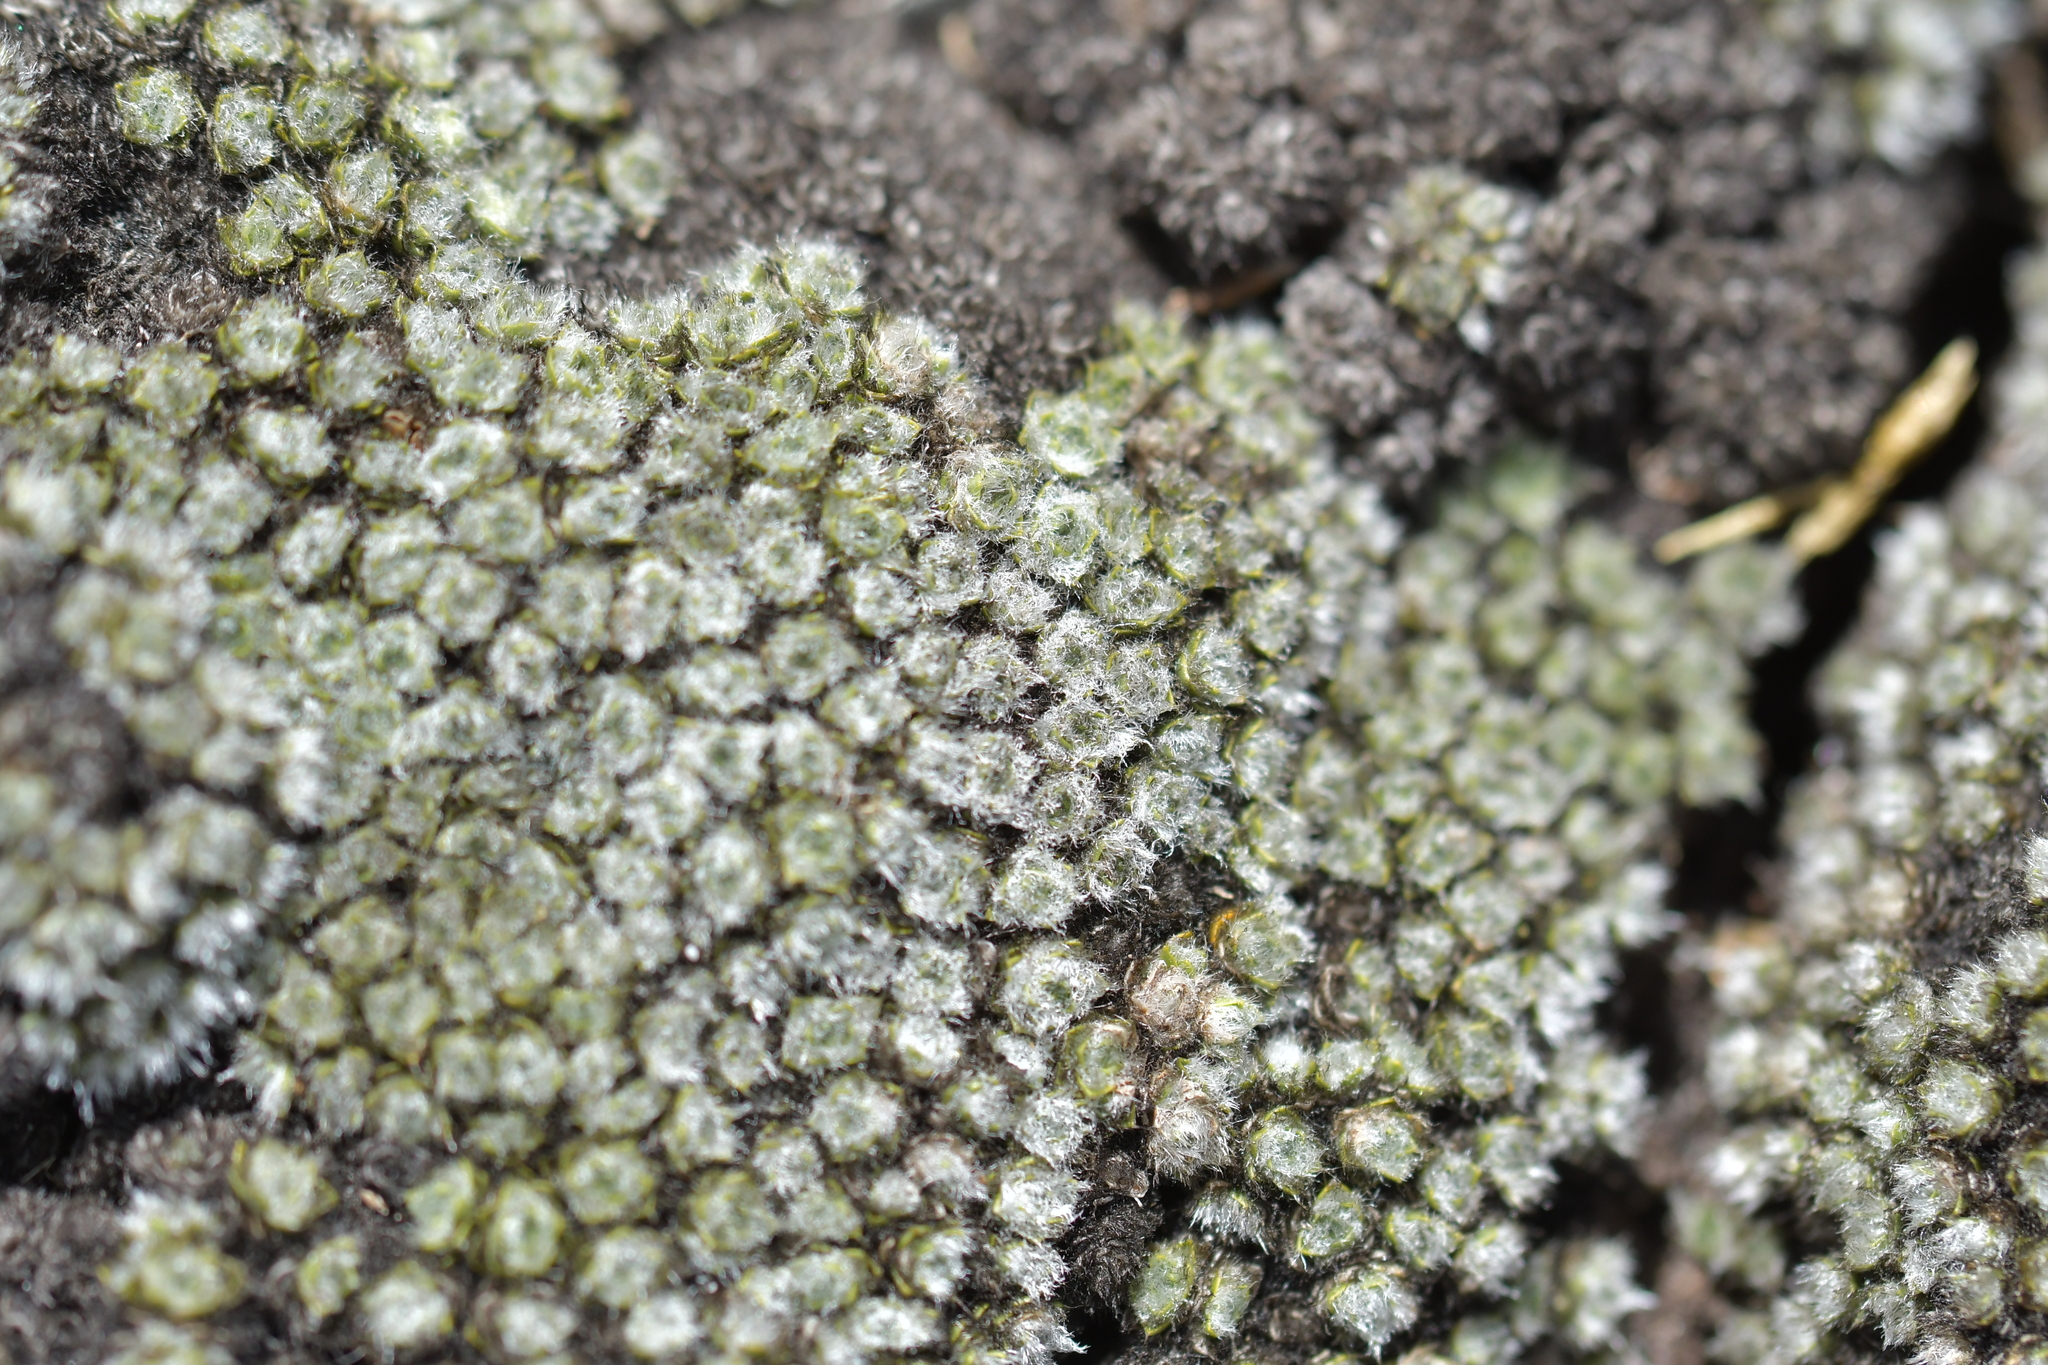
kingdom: Plantae
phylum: Tracheophyta
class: Magnoliopsida
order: Lamiales
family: Plantaginaceae
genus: Veronica
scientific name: Veronica thomsonii
